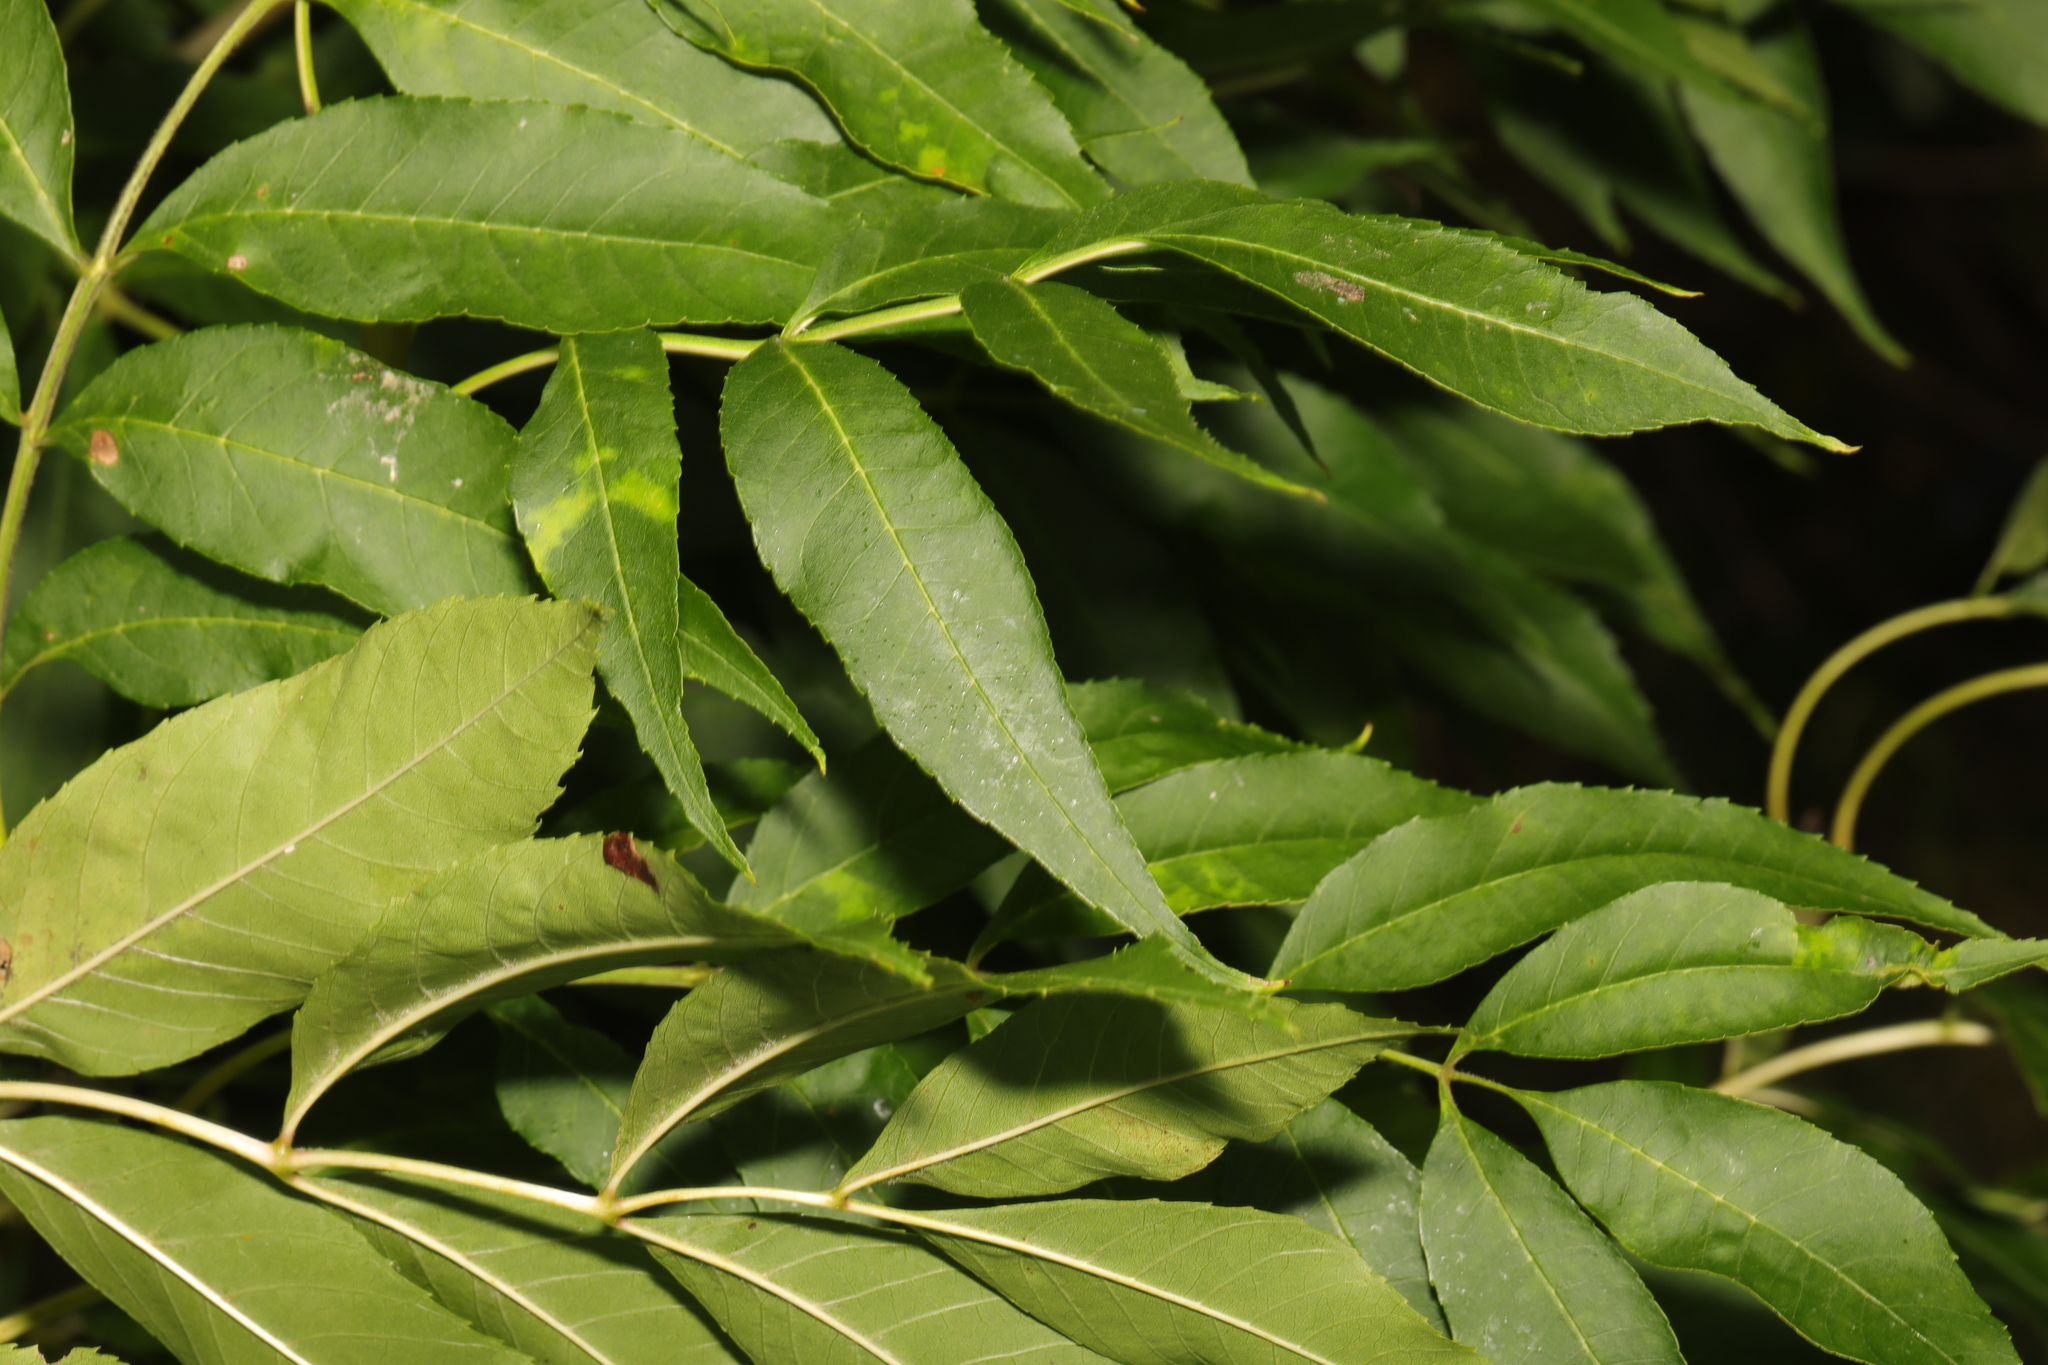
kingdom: Plantae
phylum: Tracheophyta
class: Magnoliopsida
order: Lamiales
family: Oleaceae
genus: Fraxinus
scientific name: Fraxinus excelsior
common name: European ash
